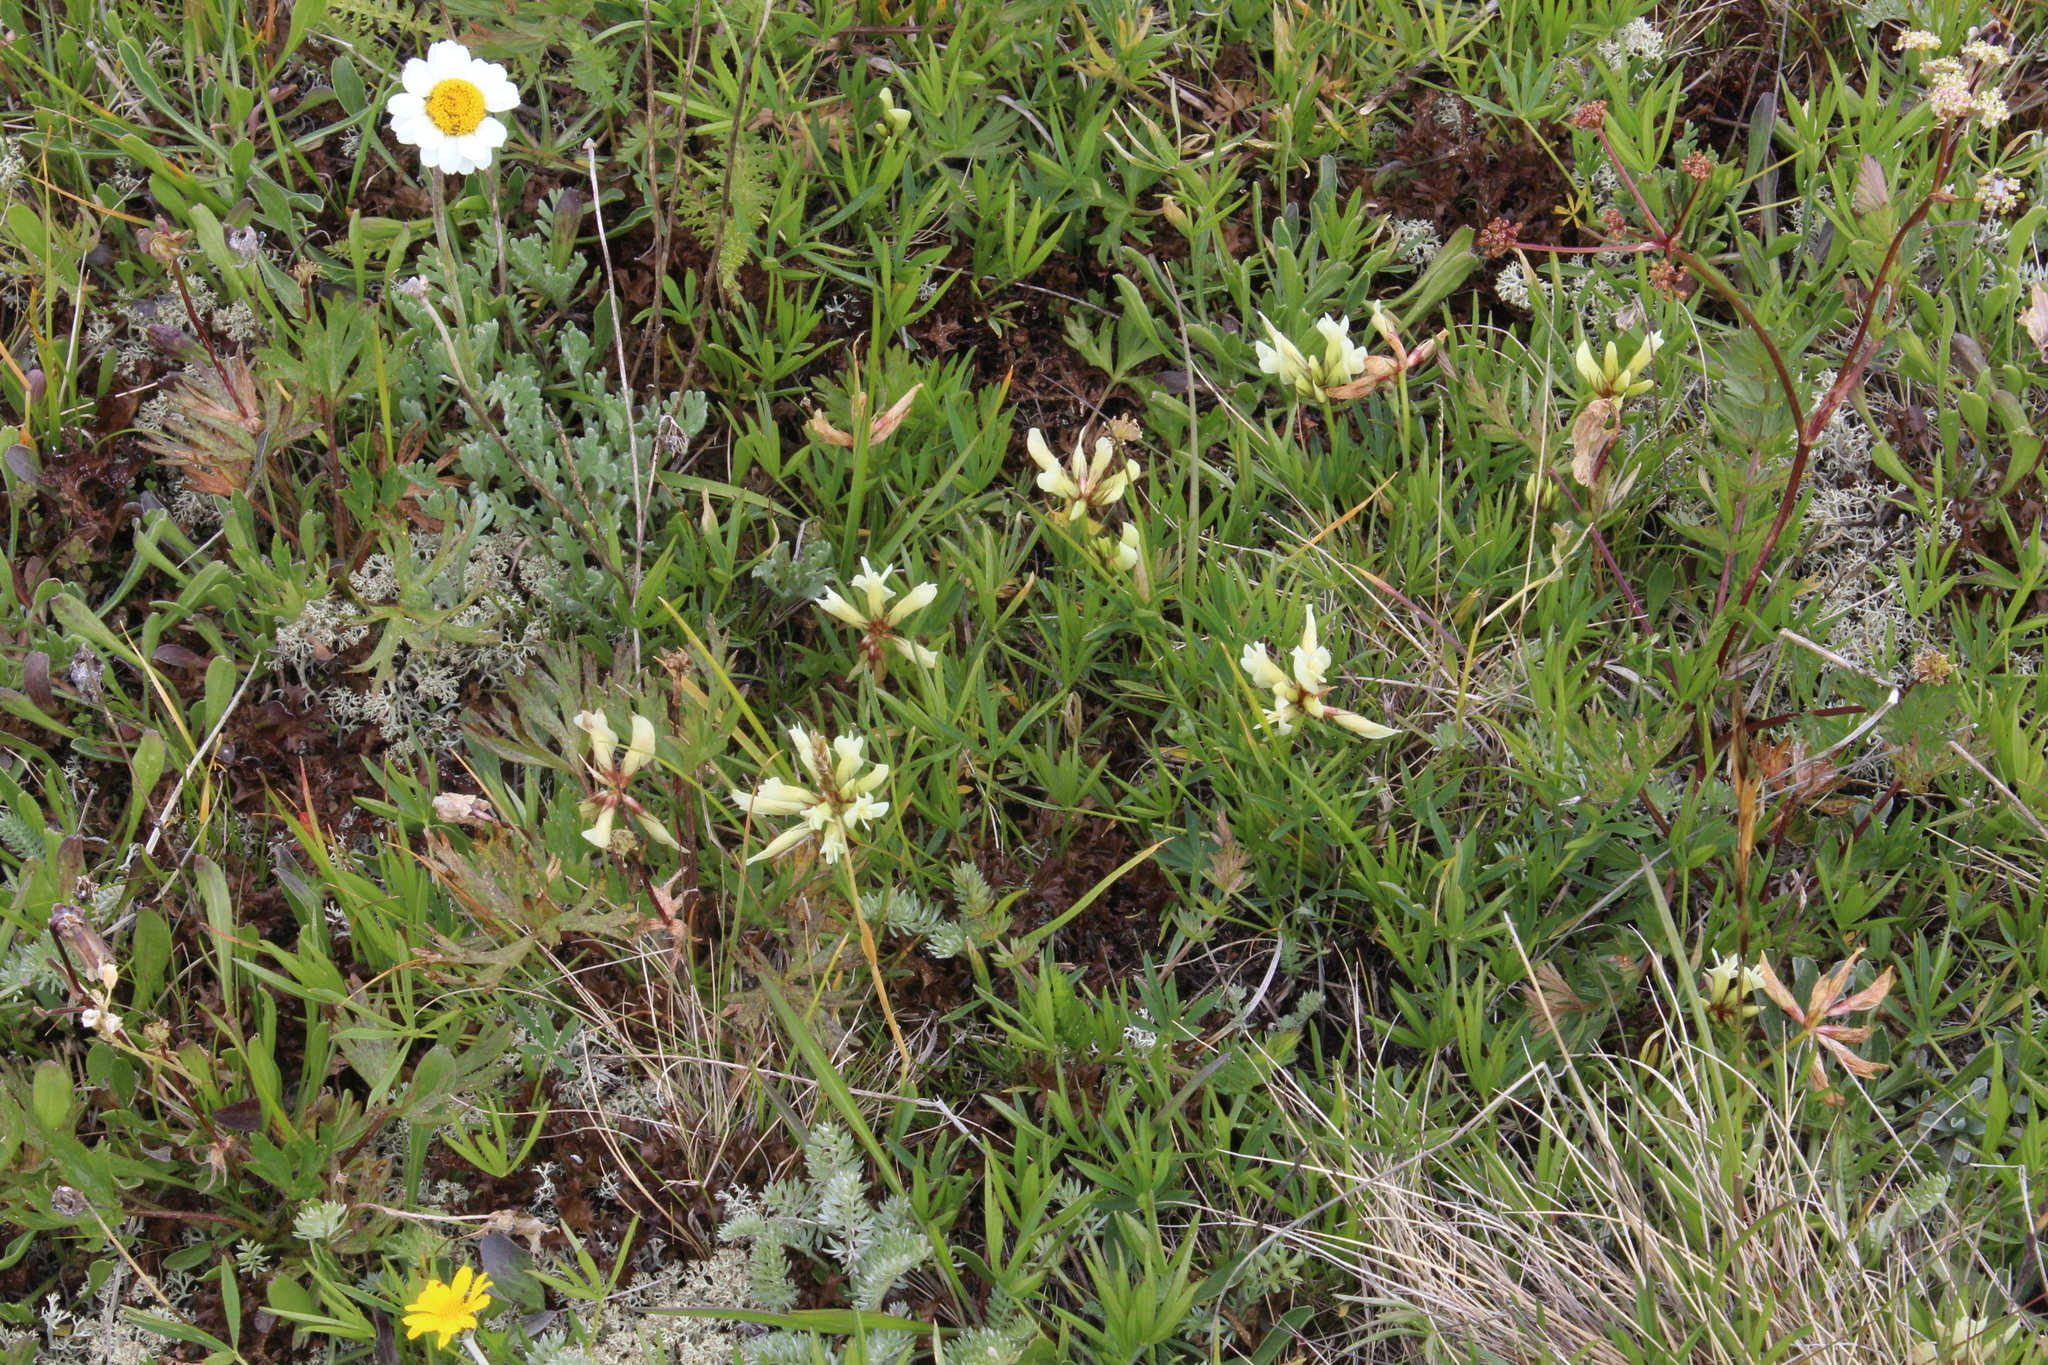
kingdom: Plantae
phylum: Tracheophyta
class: Magnoliopsida
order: Fabales
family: Fabaceae
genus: Trifolium
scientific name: Trifolium polyphyllum
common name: Many-leaf clover
